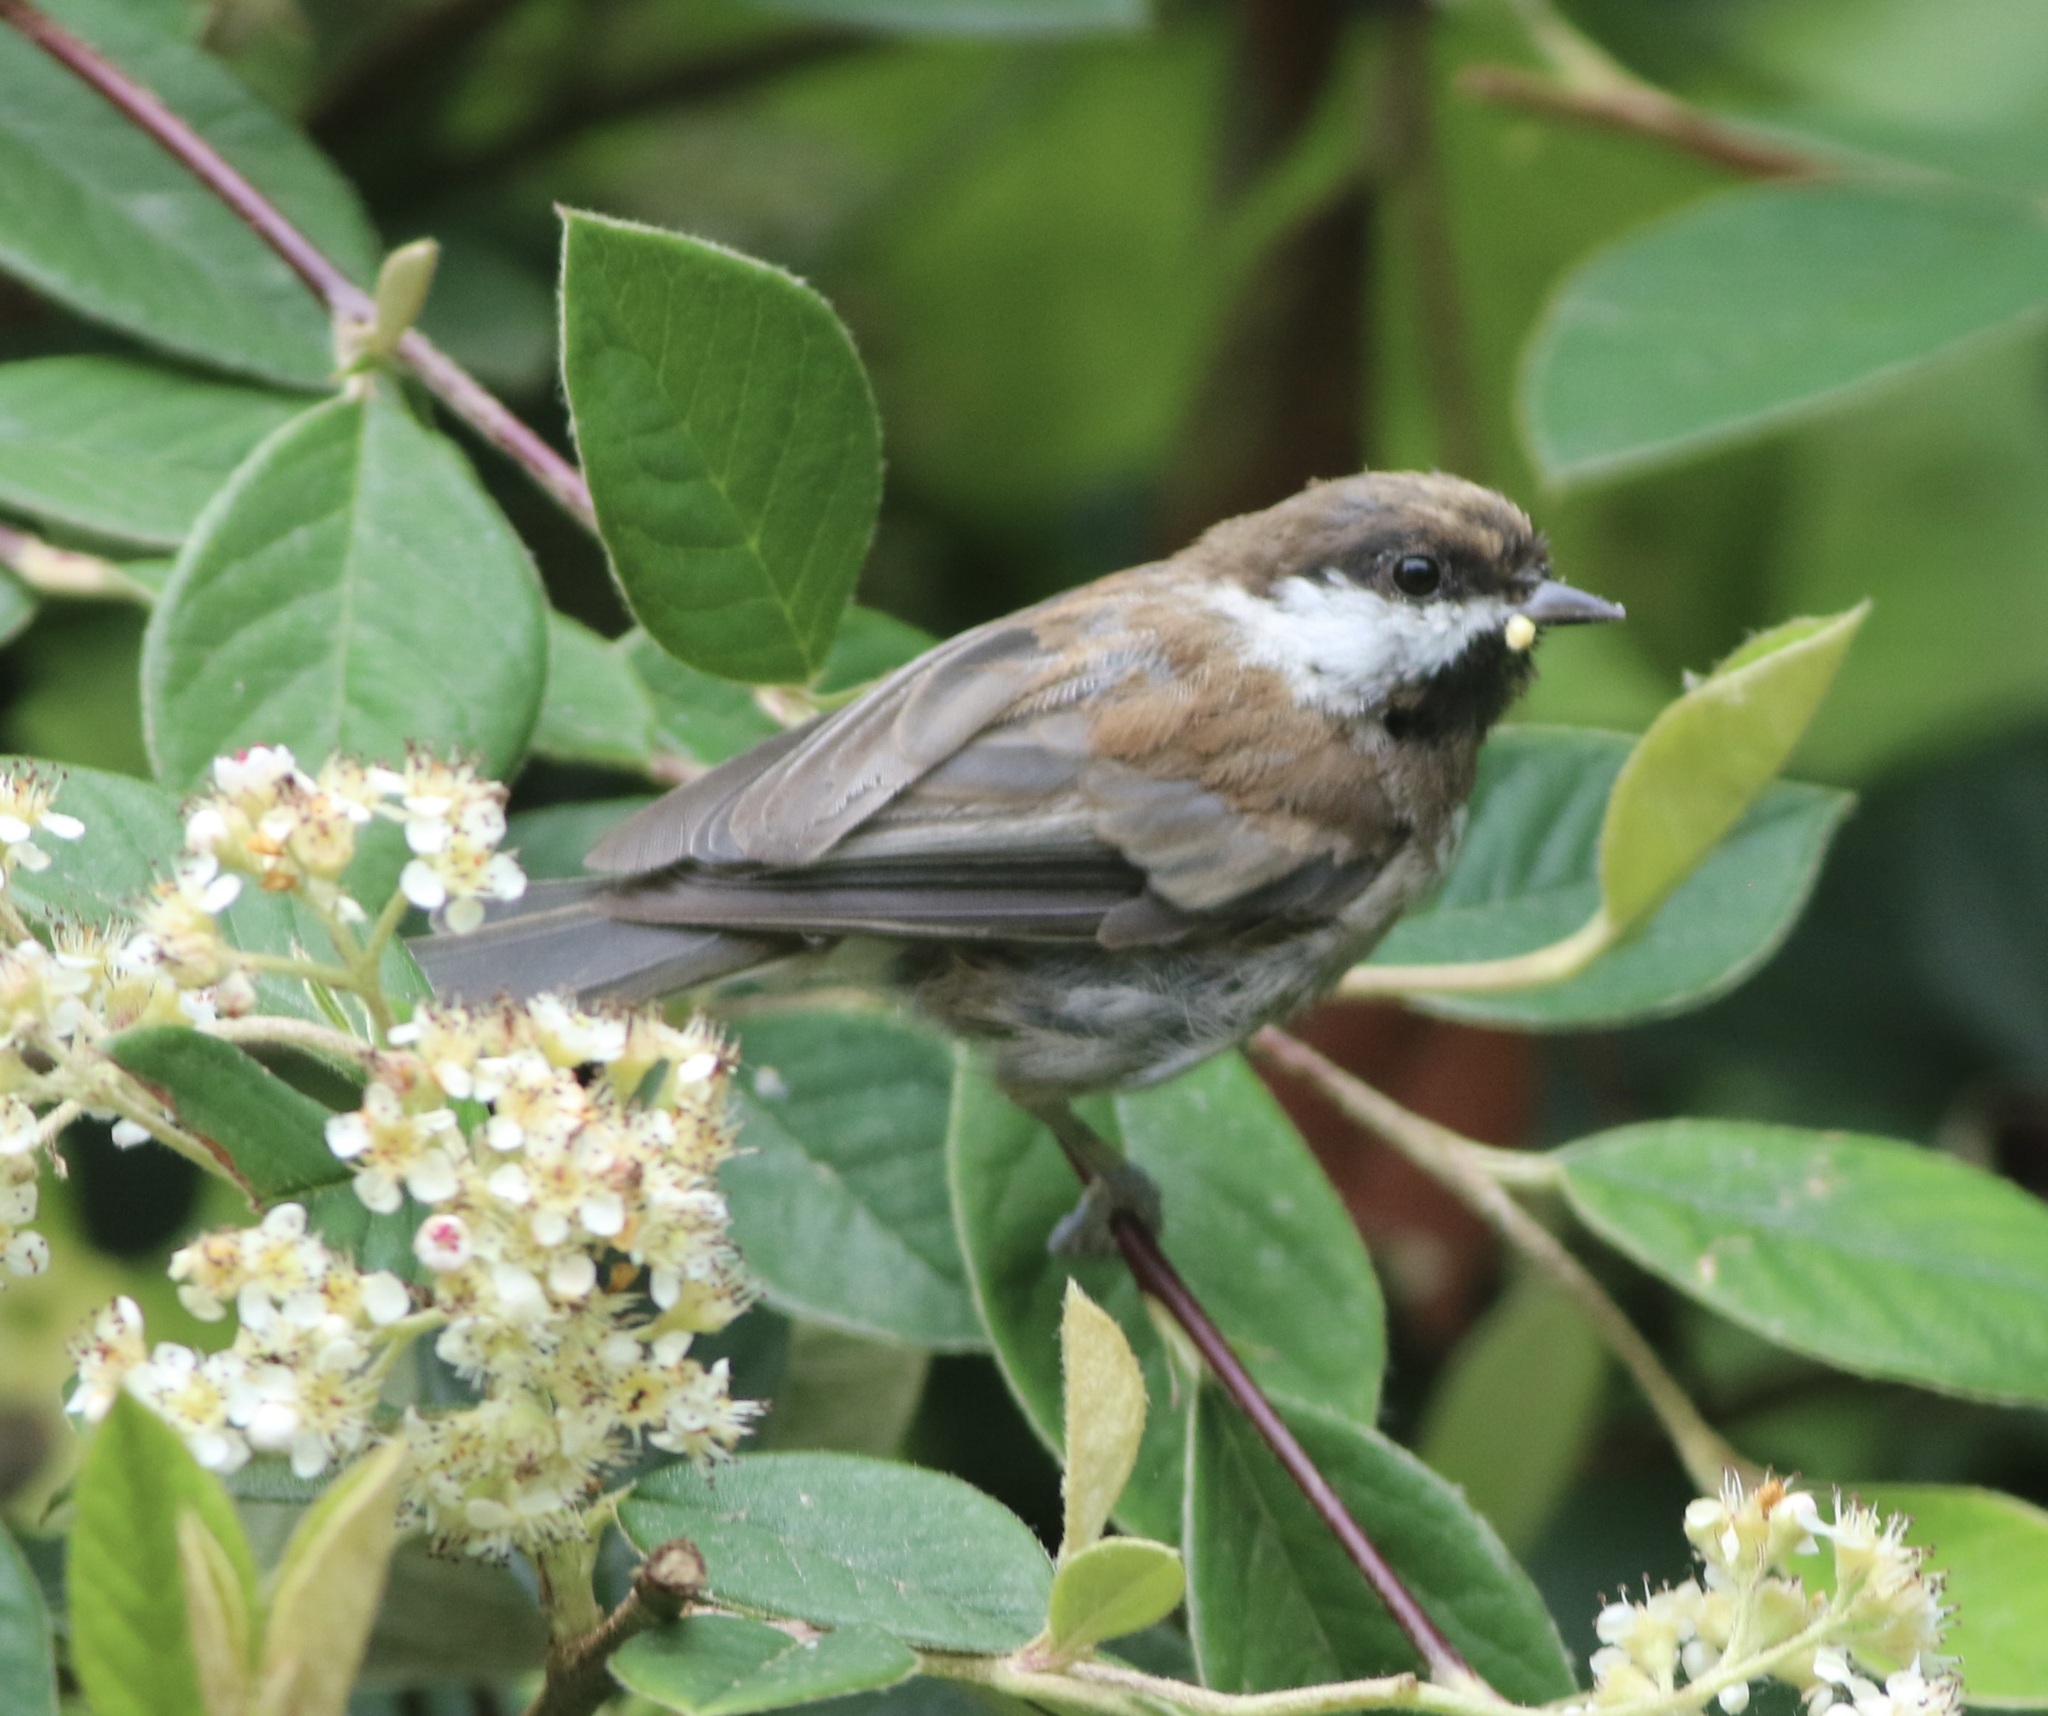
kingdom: Animalia
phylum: Chordata
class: Aves
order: Passeriformes
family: Paridae
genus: Poecile
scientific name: Poecile rufescens
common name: Chestnut-backed chickadee
